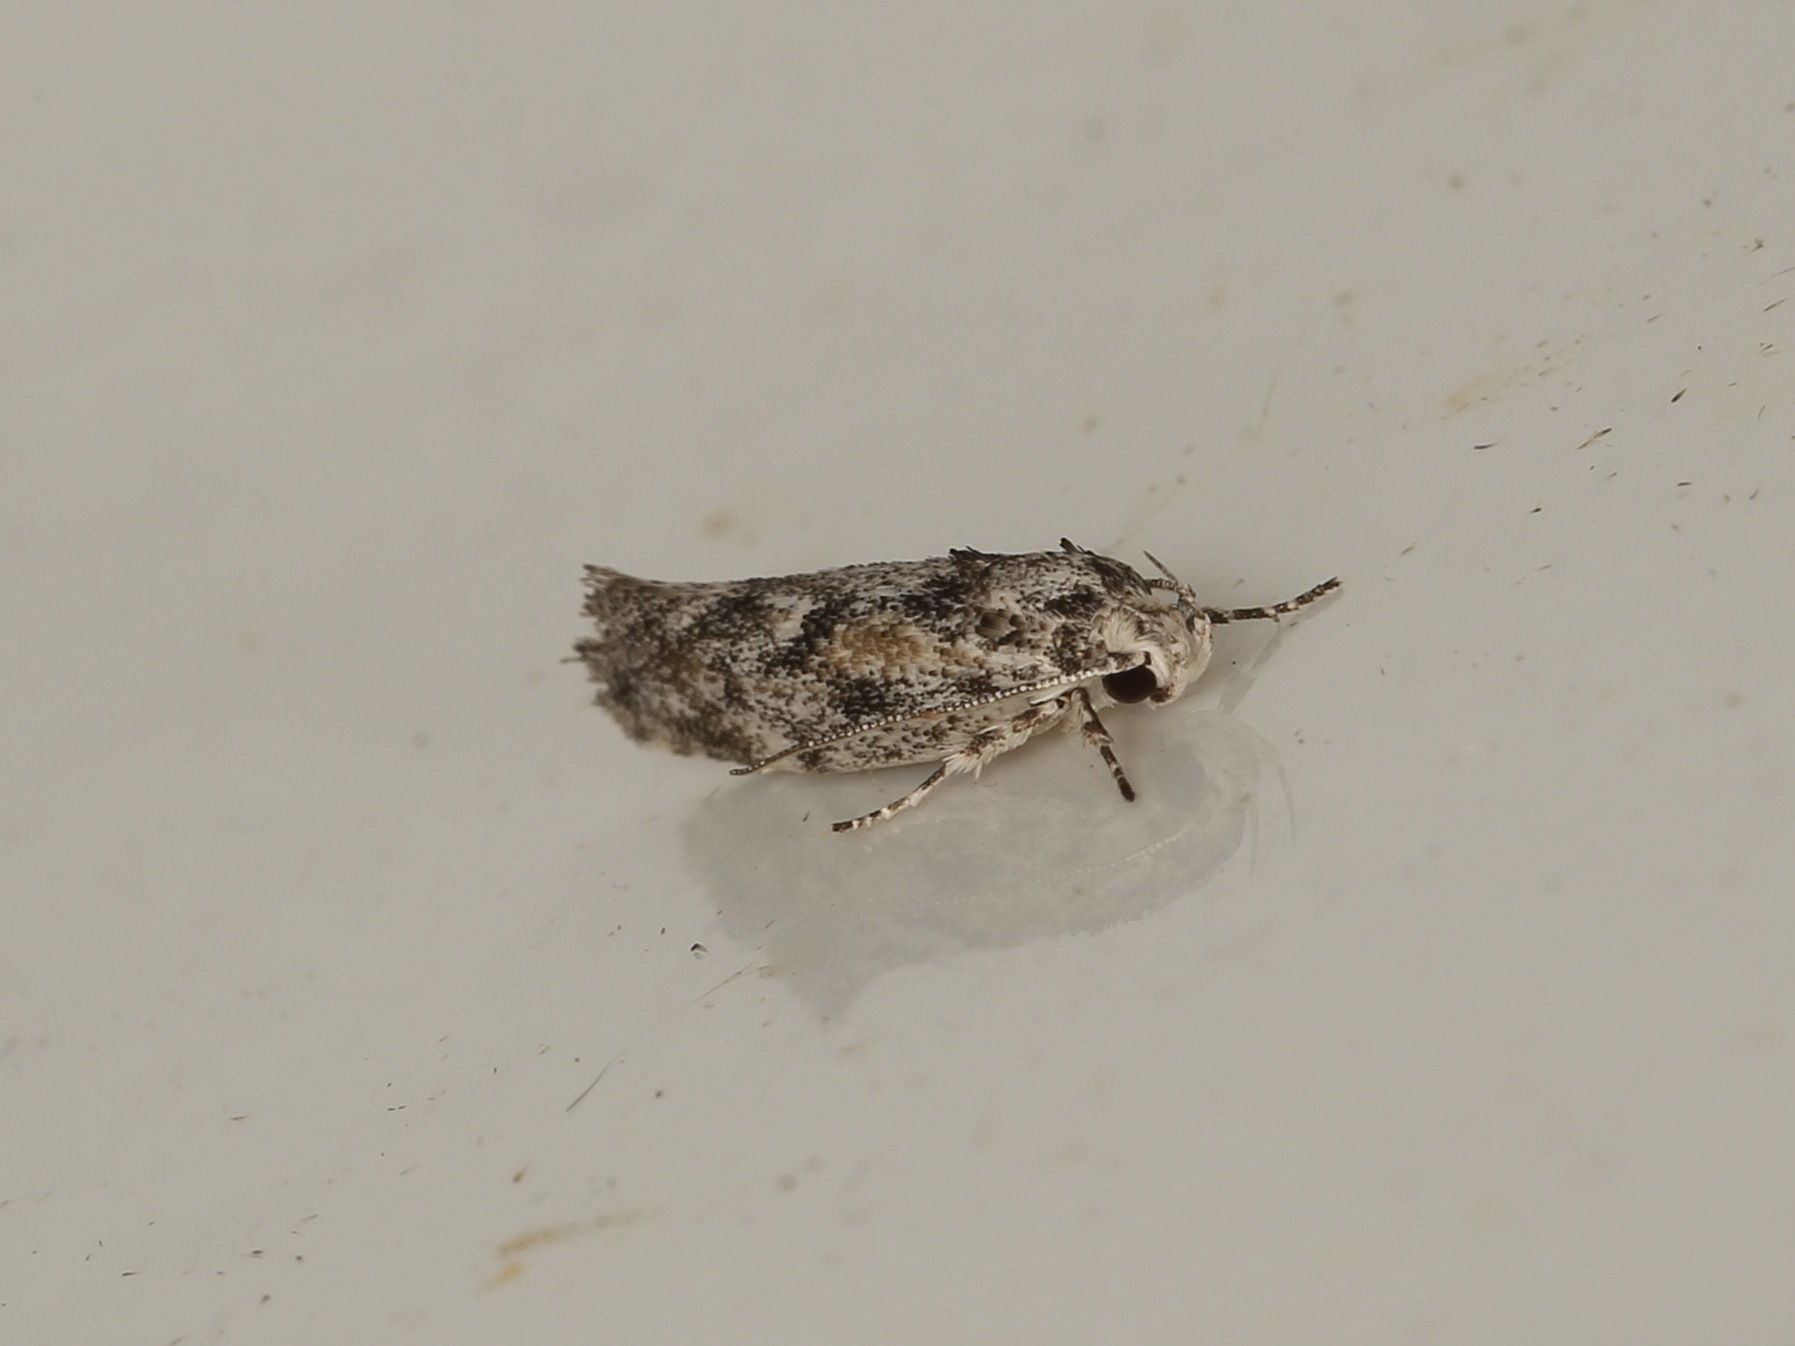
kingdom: Animalia
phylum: Arthropoda
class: Insecta
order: Lepidoptera
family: Xyloryctidae
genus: Lichenaula
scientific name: Lichenaula appropinquans
